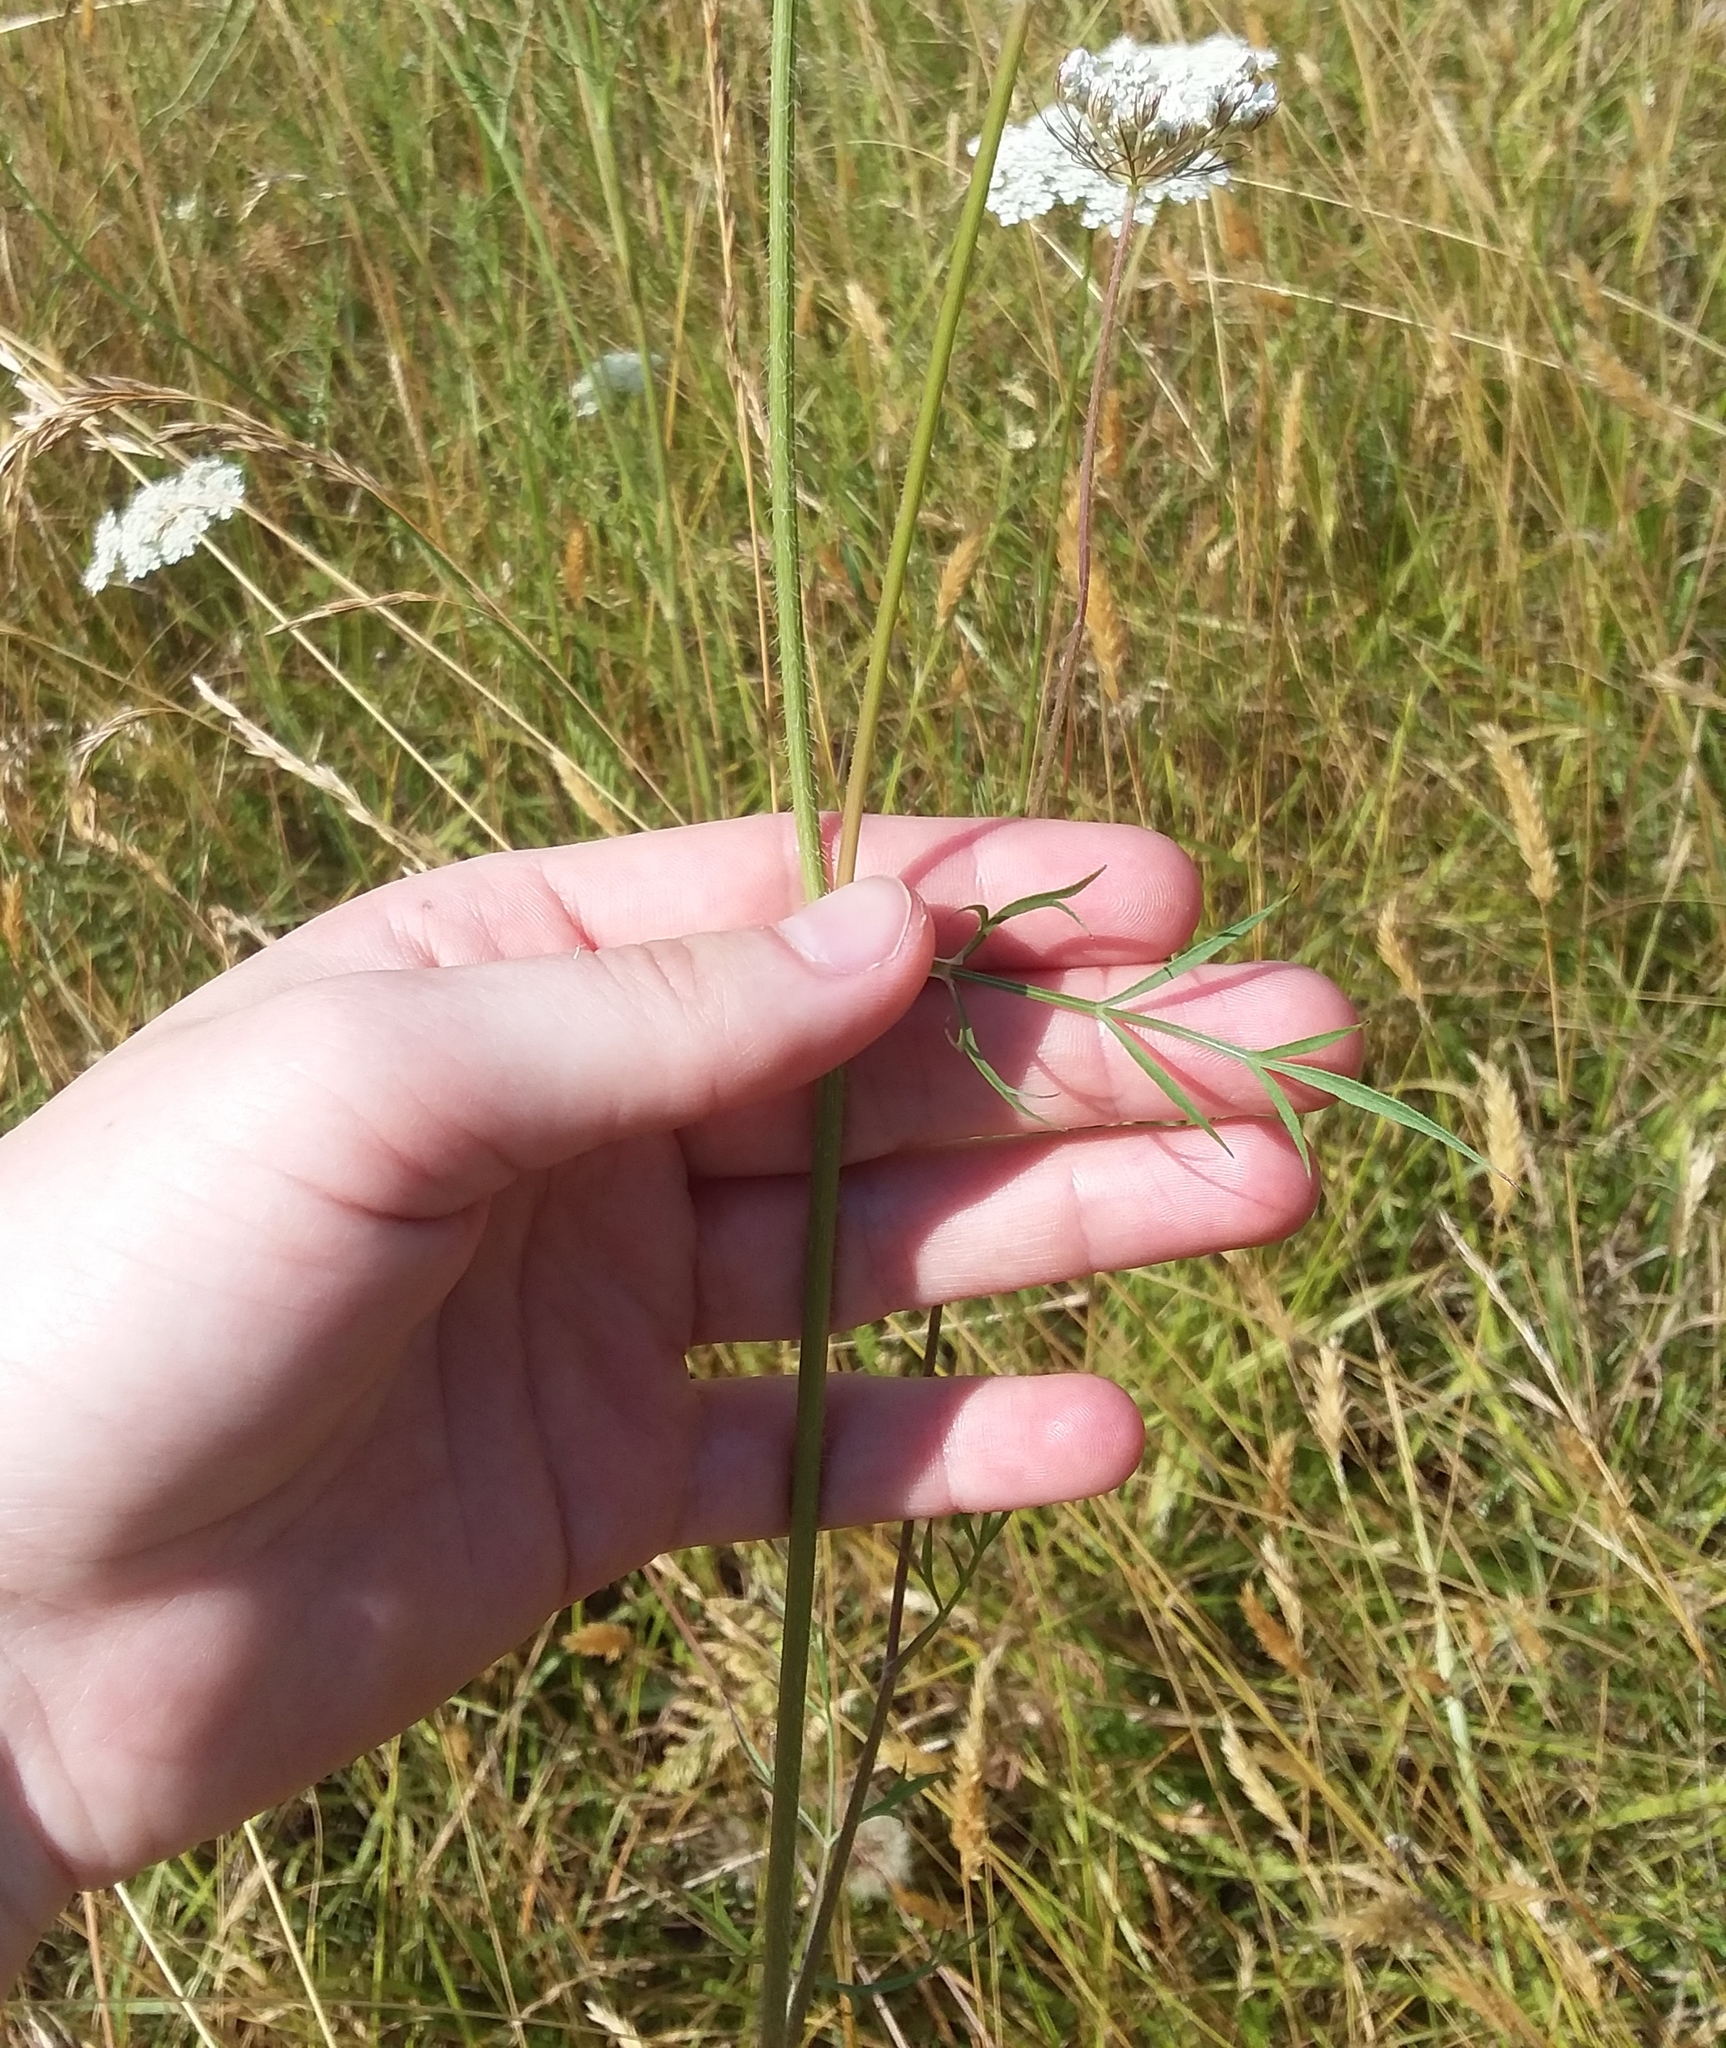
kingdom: Plantae
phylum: Tracheophyta
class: Magnoliopsida
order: Apiales
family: Apiaceae
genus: Daucus
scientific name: Daucus carota
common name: Wild carrot
